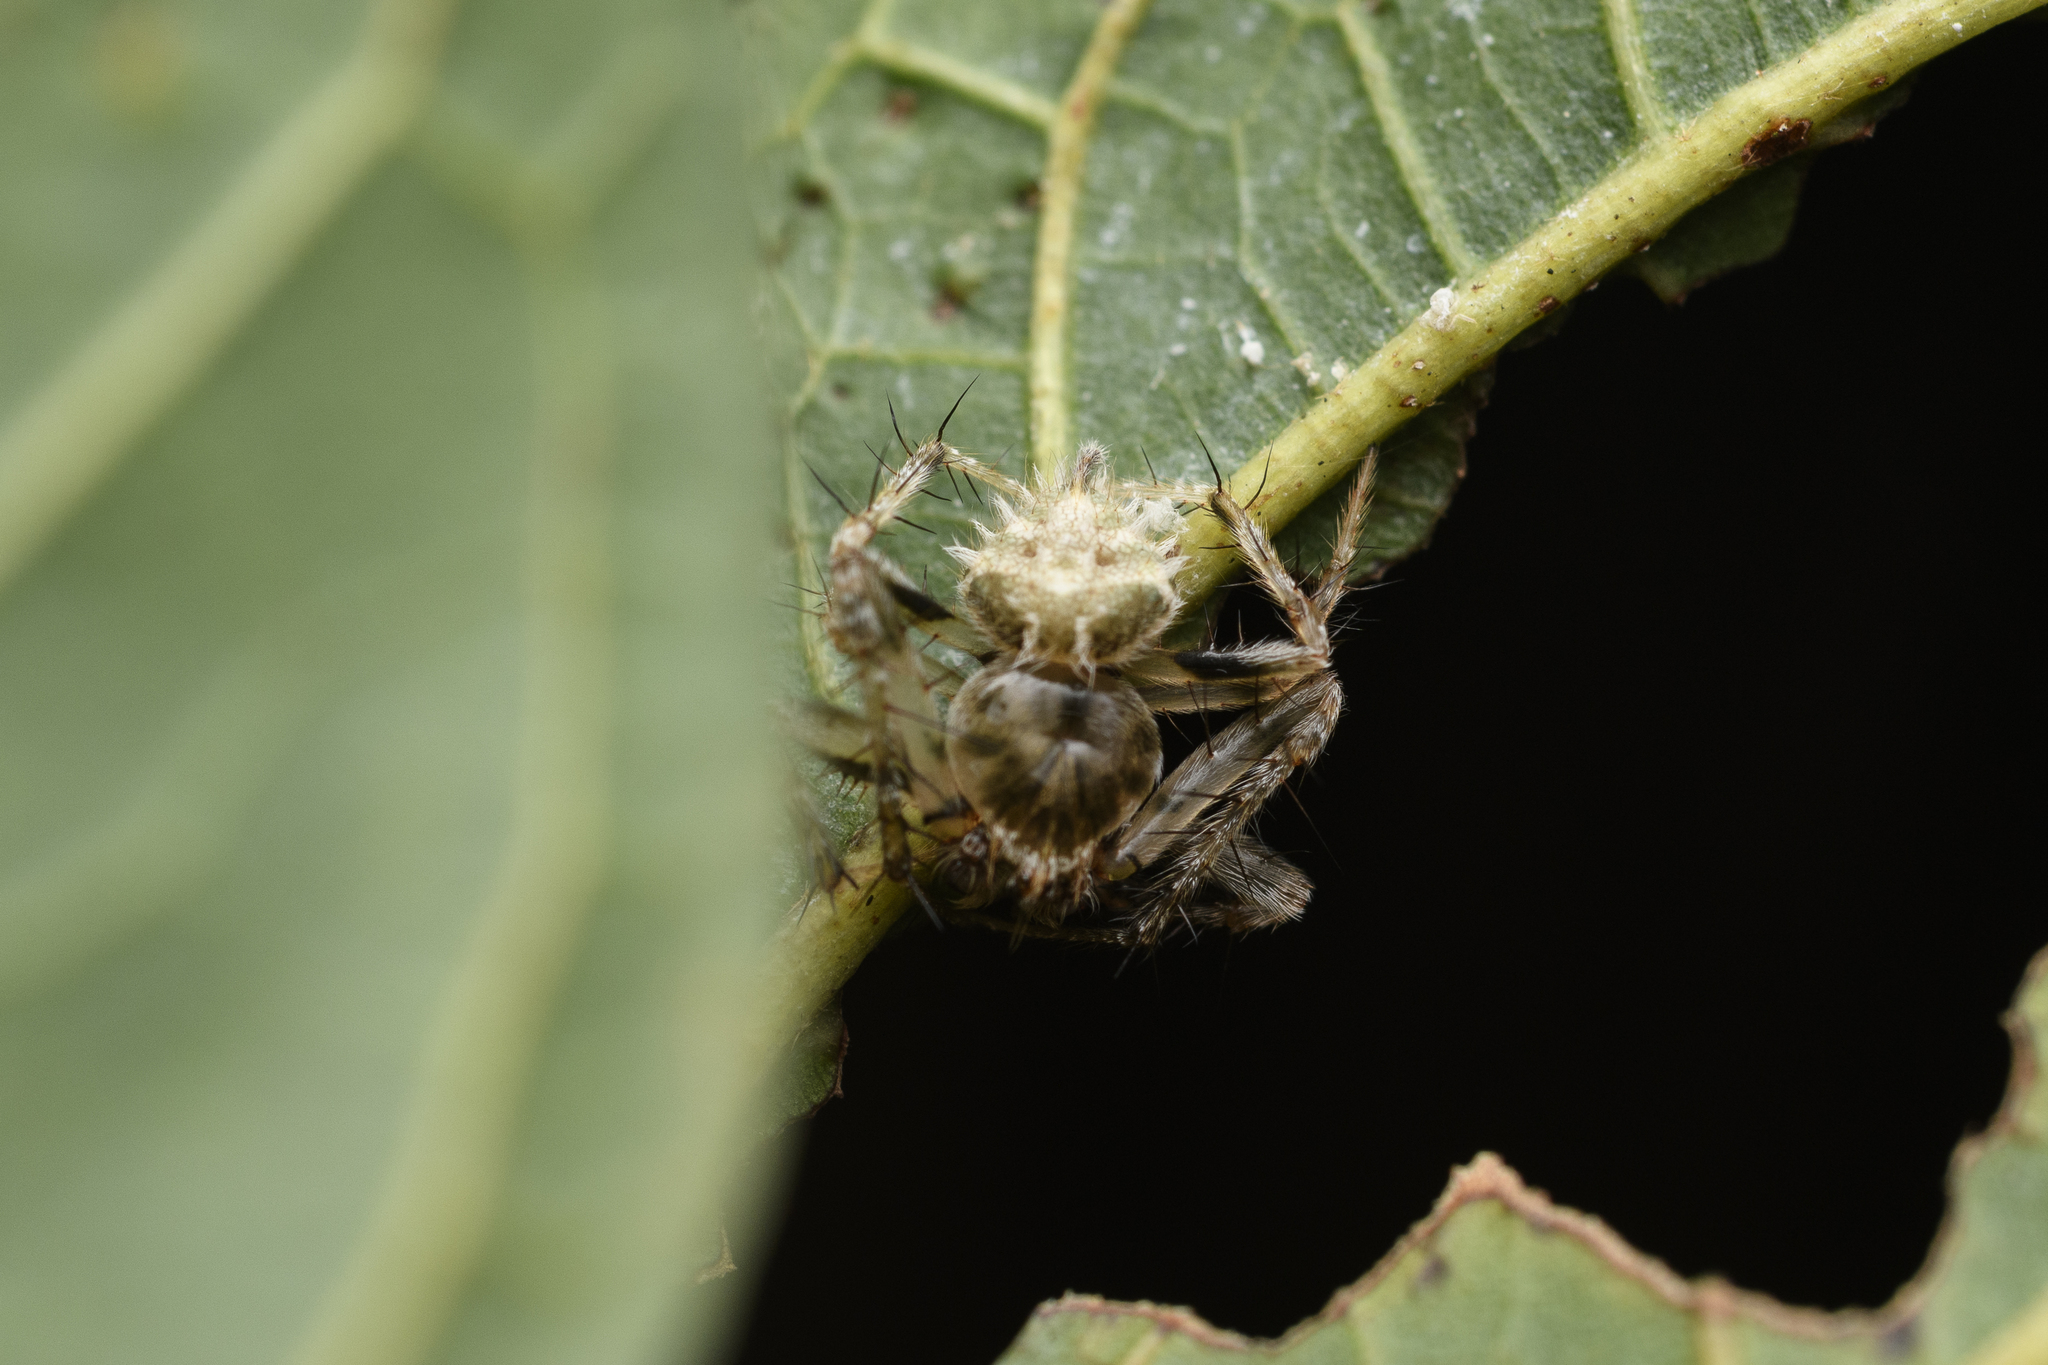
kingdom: Animalia
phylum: Arthropoda
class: Arachnida
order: Araneae
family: Araneidae
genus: Eriovixia
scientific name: Eriovixia laglaizei
